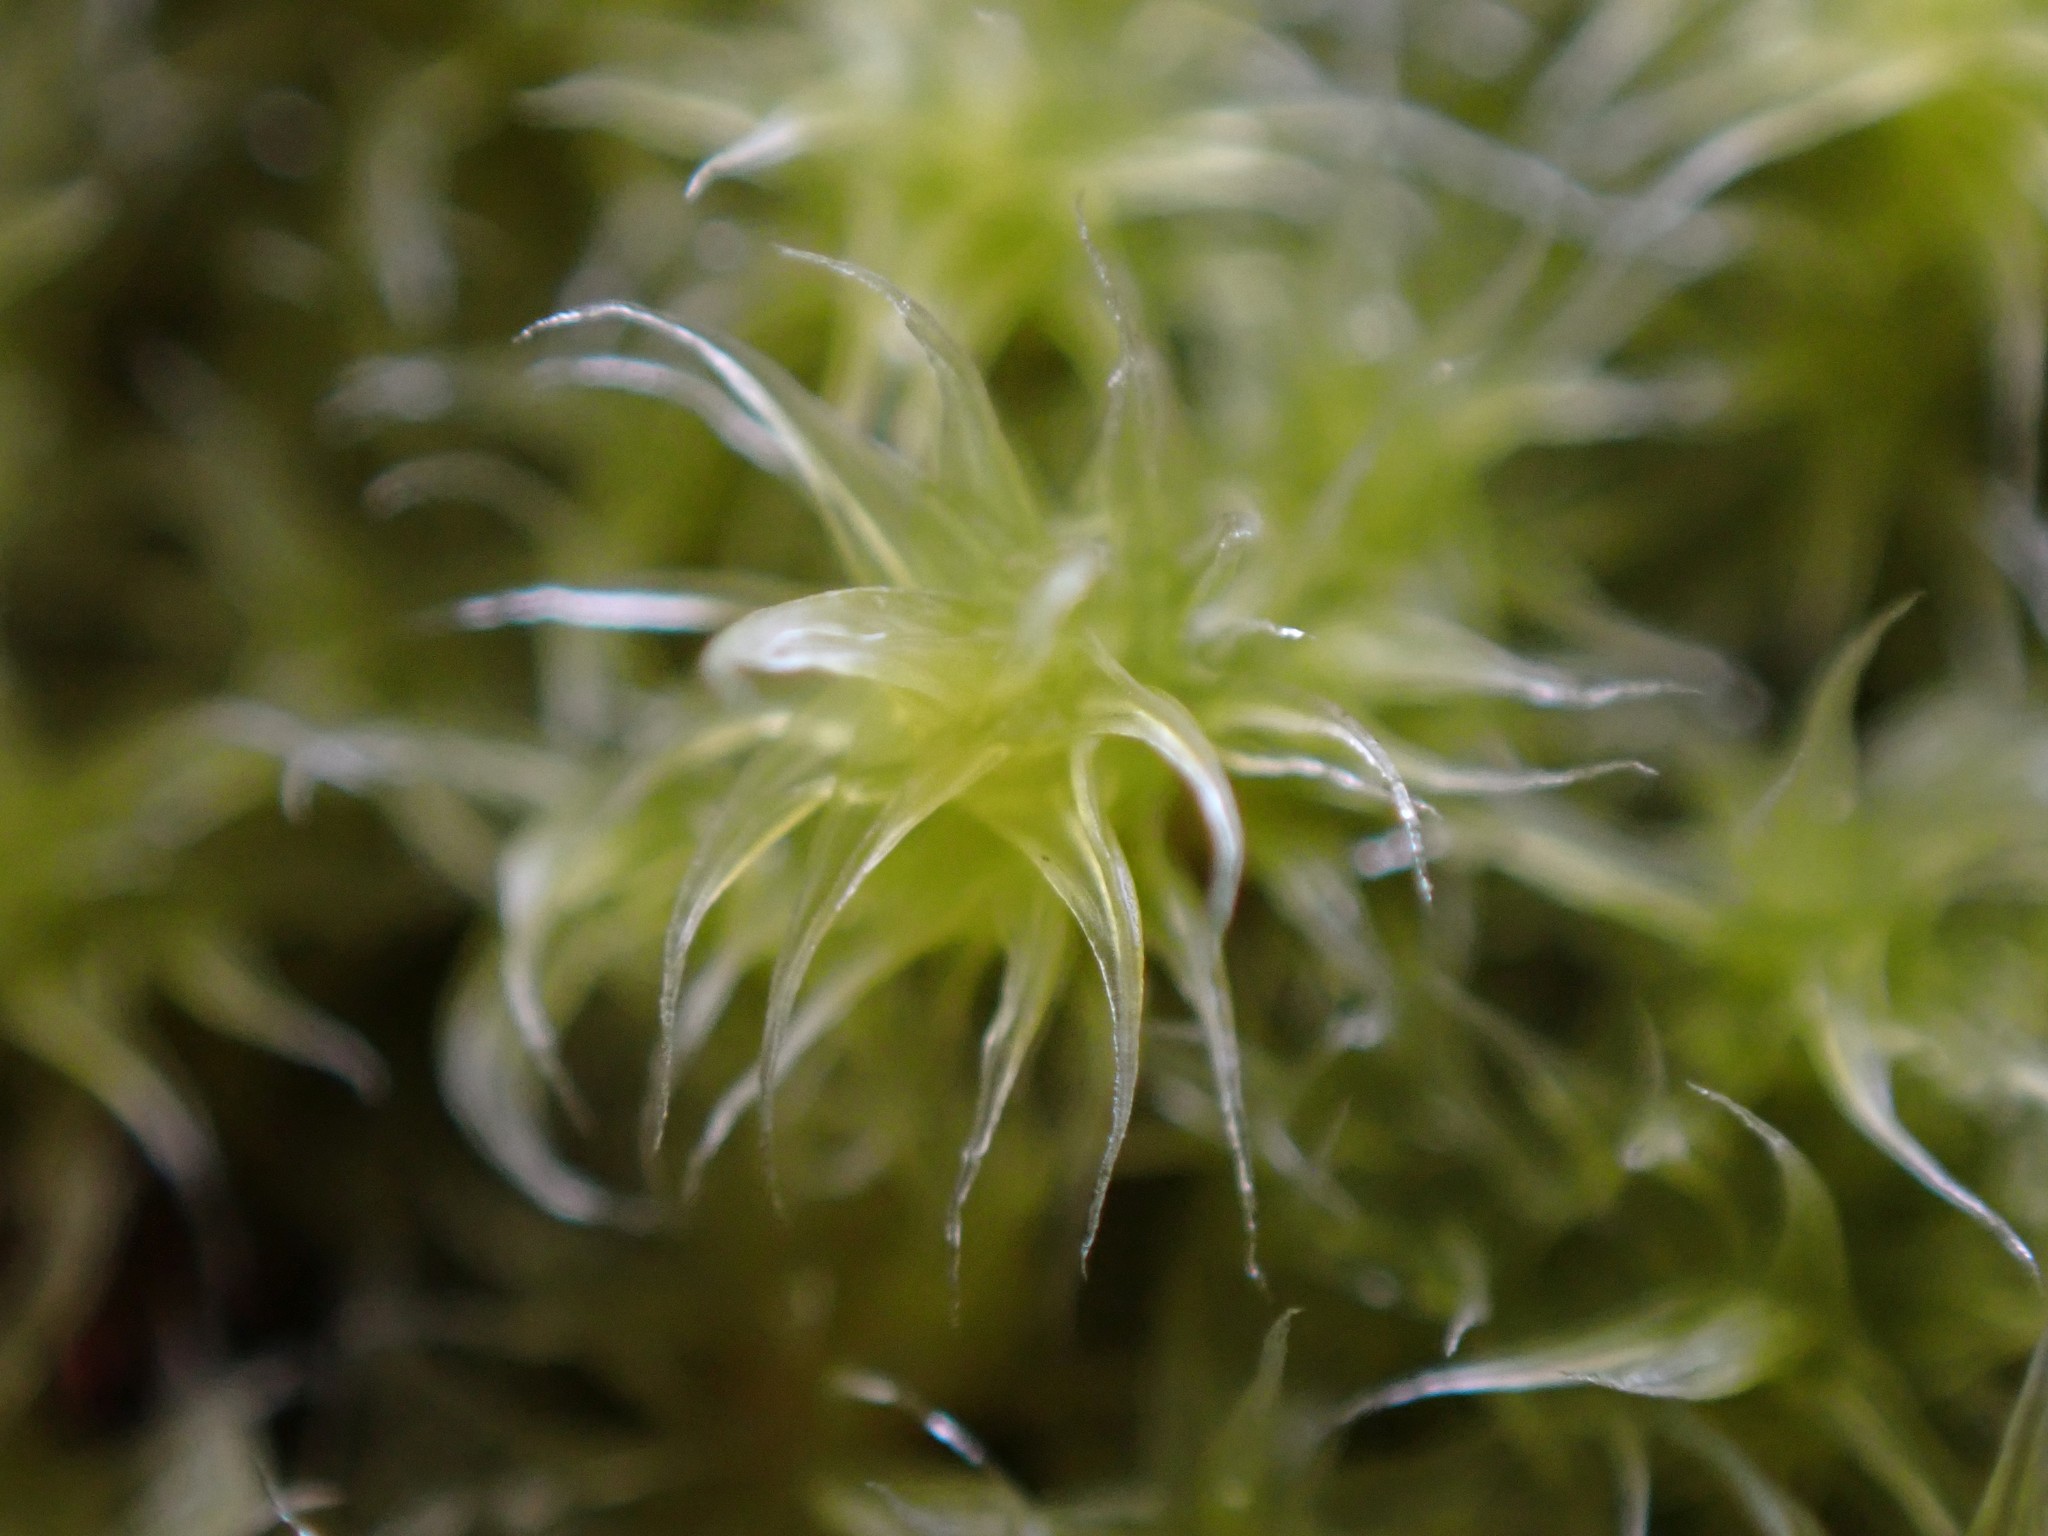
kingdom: Plantae
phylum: Bryophyta
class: Bryopsida
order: Grimmiales
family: Grimmiaceae
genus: Niphotrichum
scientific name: Niphotrichum elongatum
